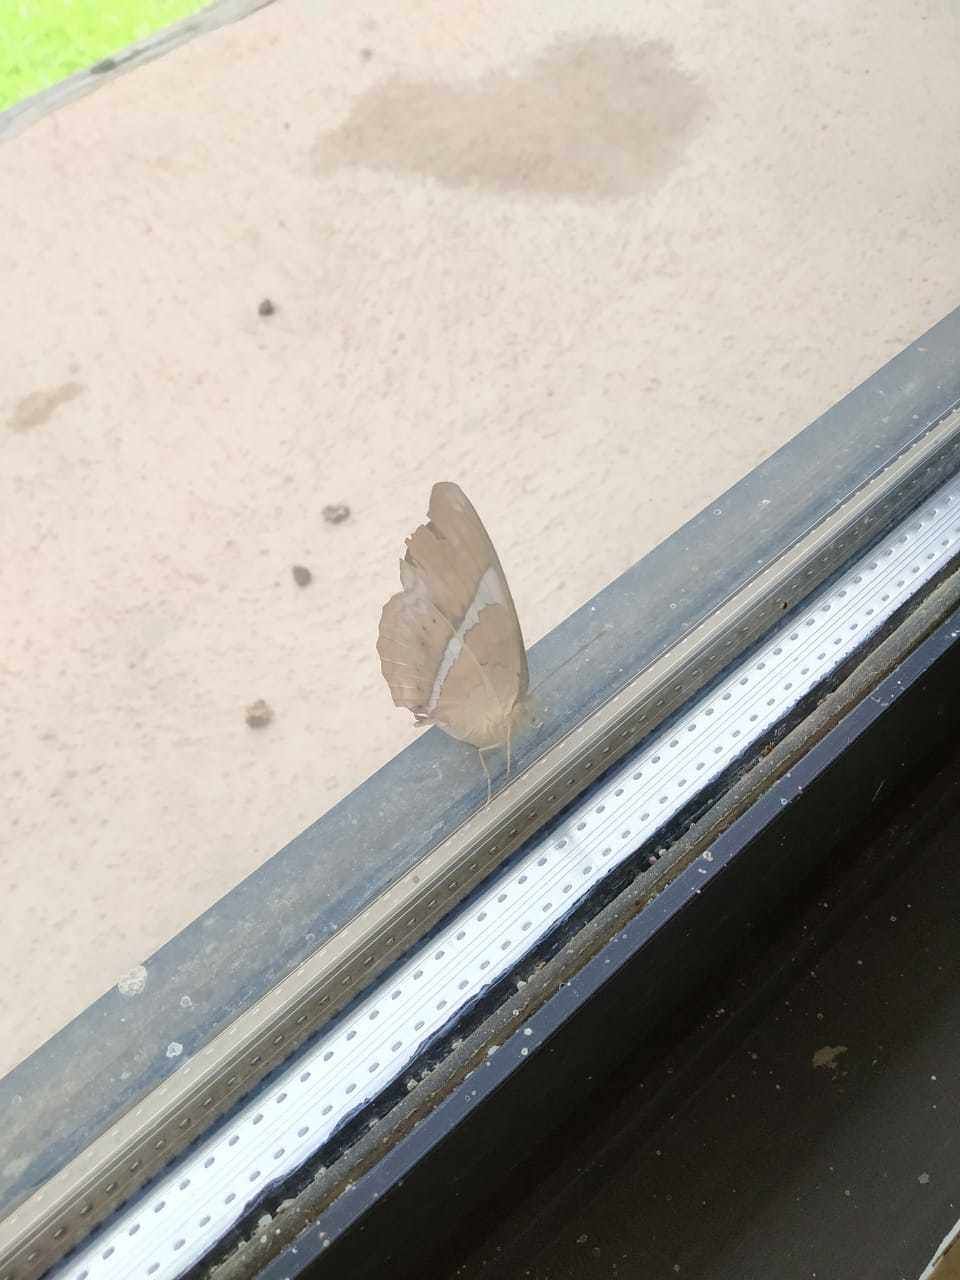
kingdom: Animalia
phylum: Arthropoda
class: Insecta
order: Lepidoptera
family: Nymphalidae
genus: Cirrochroa
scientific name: Cirrochroa thais
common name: Tamil yeoman
